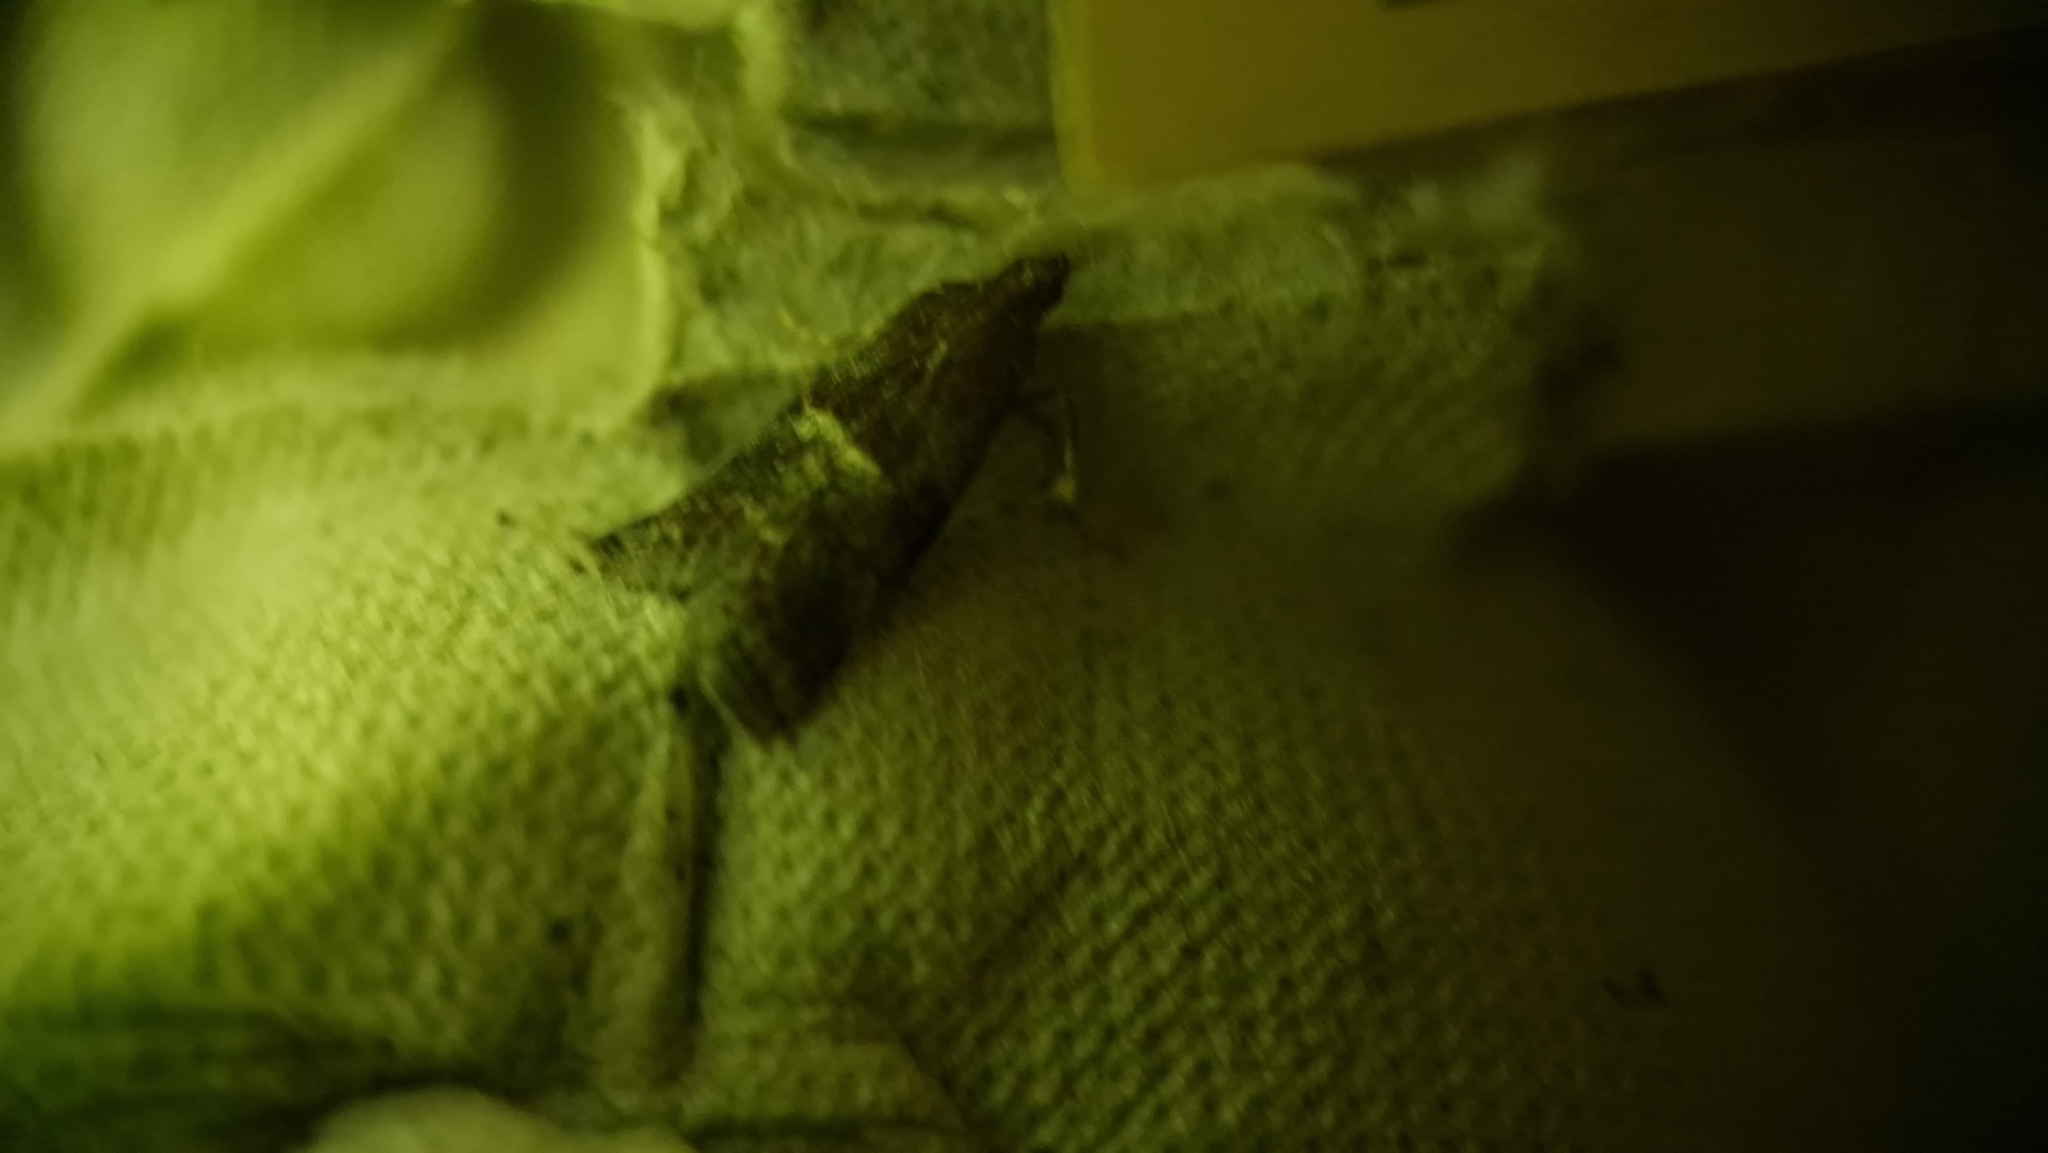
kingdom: Animalia
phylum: Arthropoda
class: Insecta
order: Lepidoptera
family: Pyralidae
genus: Acrobasis
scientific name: Acrobasis marmorea
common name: Marbled knot-horn
